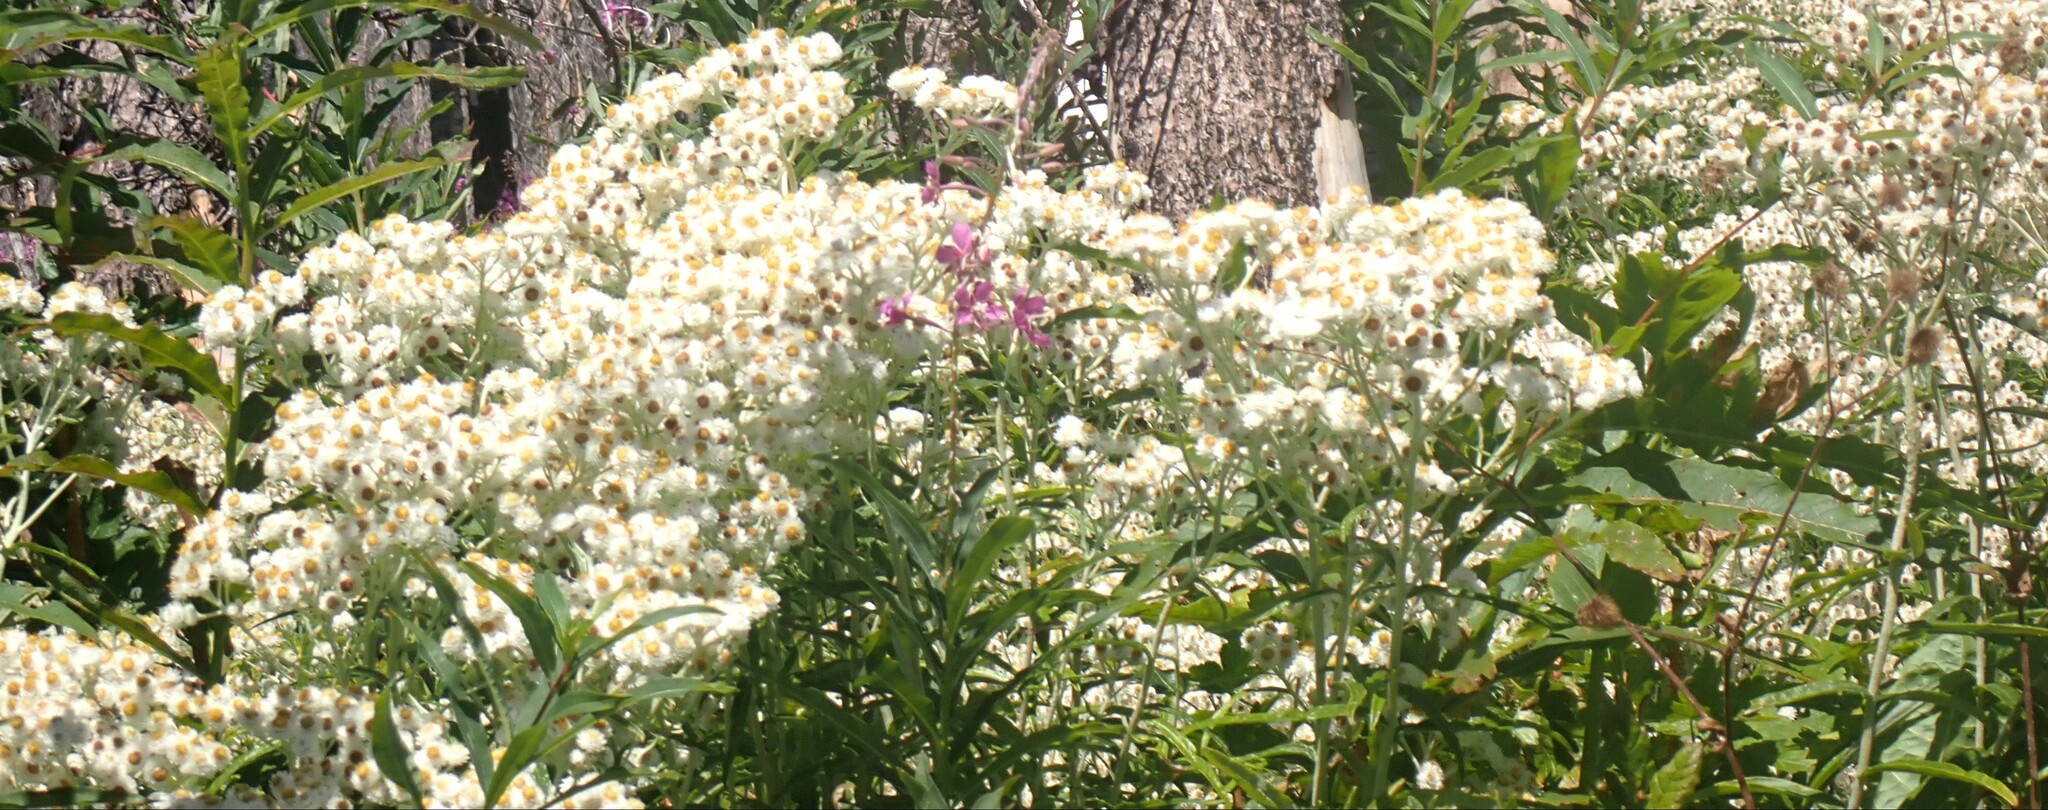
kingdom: Plantae
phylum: Tracheophyta
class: Magnoliopsida
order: Asterales
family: Asteraceae
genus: Anaphalis
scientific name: Anaphalis margaritacea
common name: Pearly everlasting
